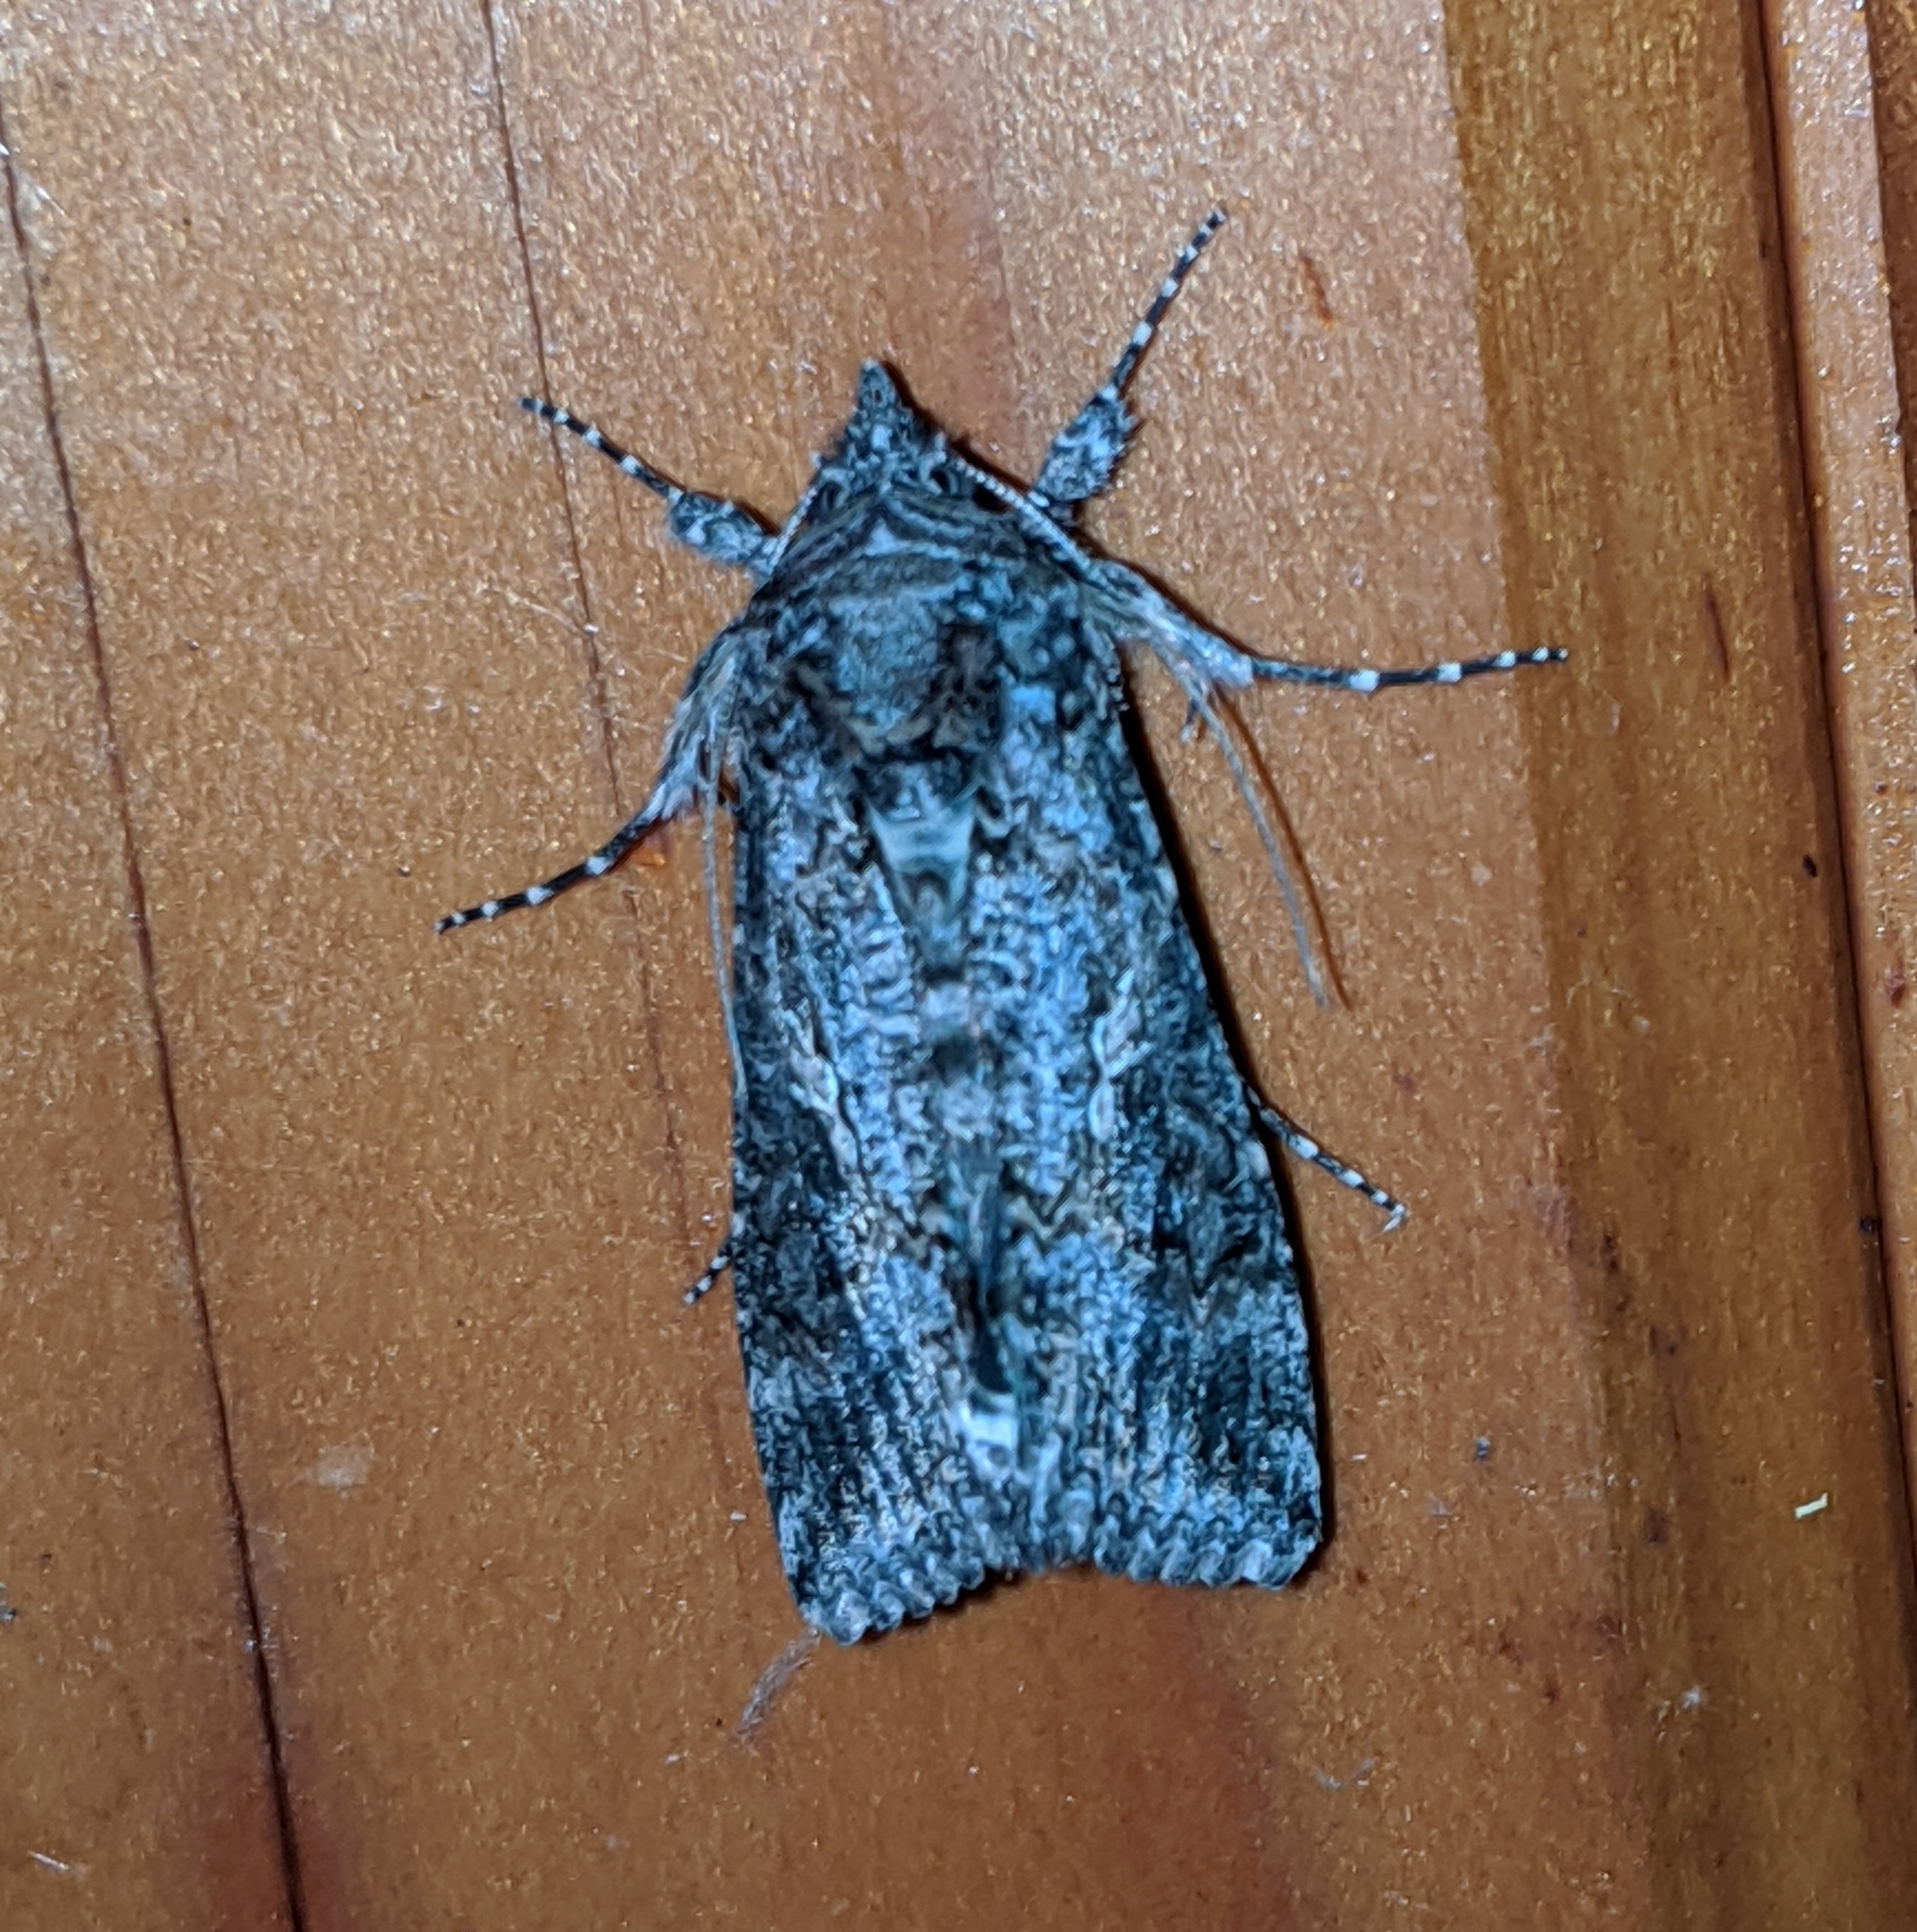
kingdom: Animalia
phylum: Arthropoda
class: Insecta
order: Lepidoptera
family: Noctuidae
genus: Trichoplusia
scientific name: Trichoplusia ni
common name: Ni moth
